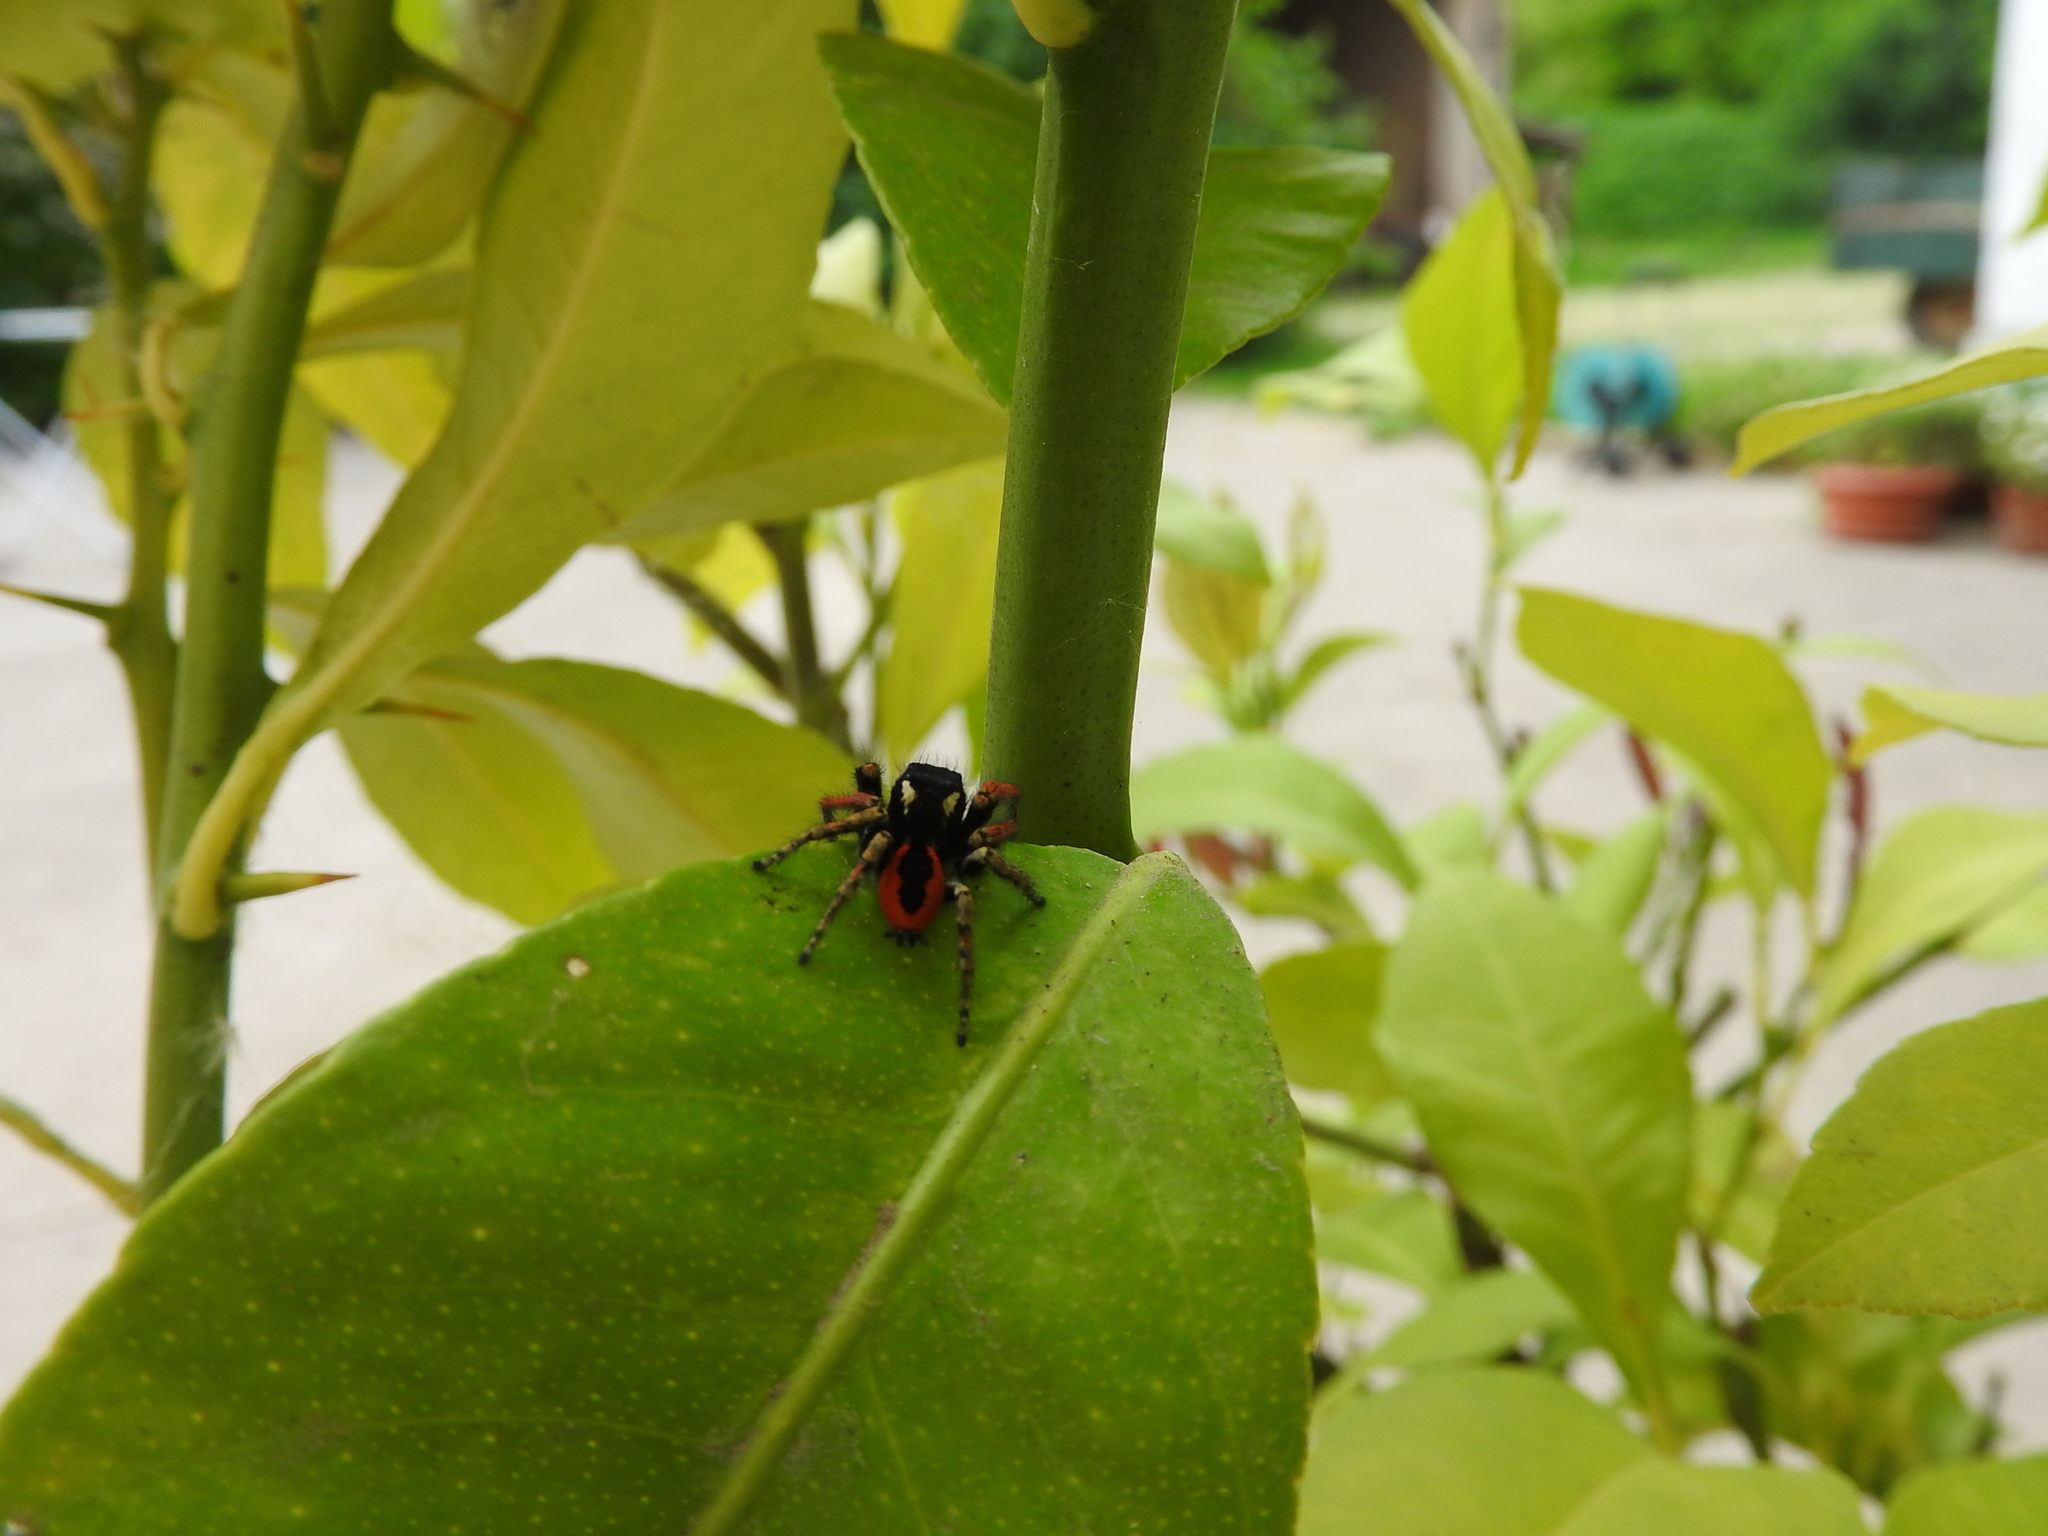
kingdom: Animalia
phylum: Arthropoda
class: Arachnida
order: Araneae
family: Salticidae
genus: Philaeus
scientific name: Philaeus chrysops
